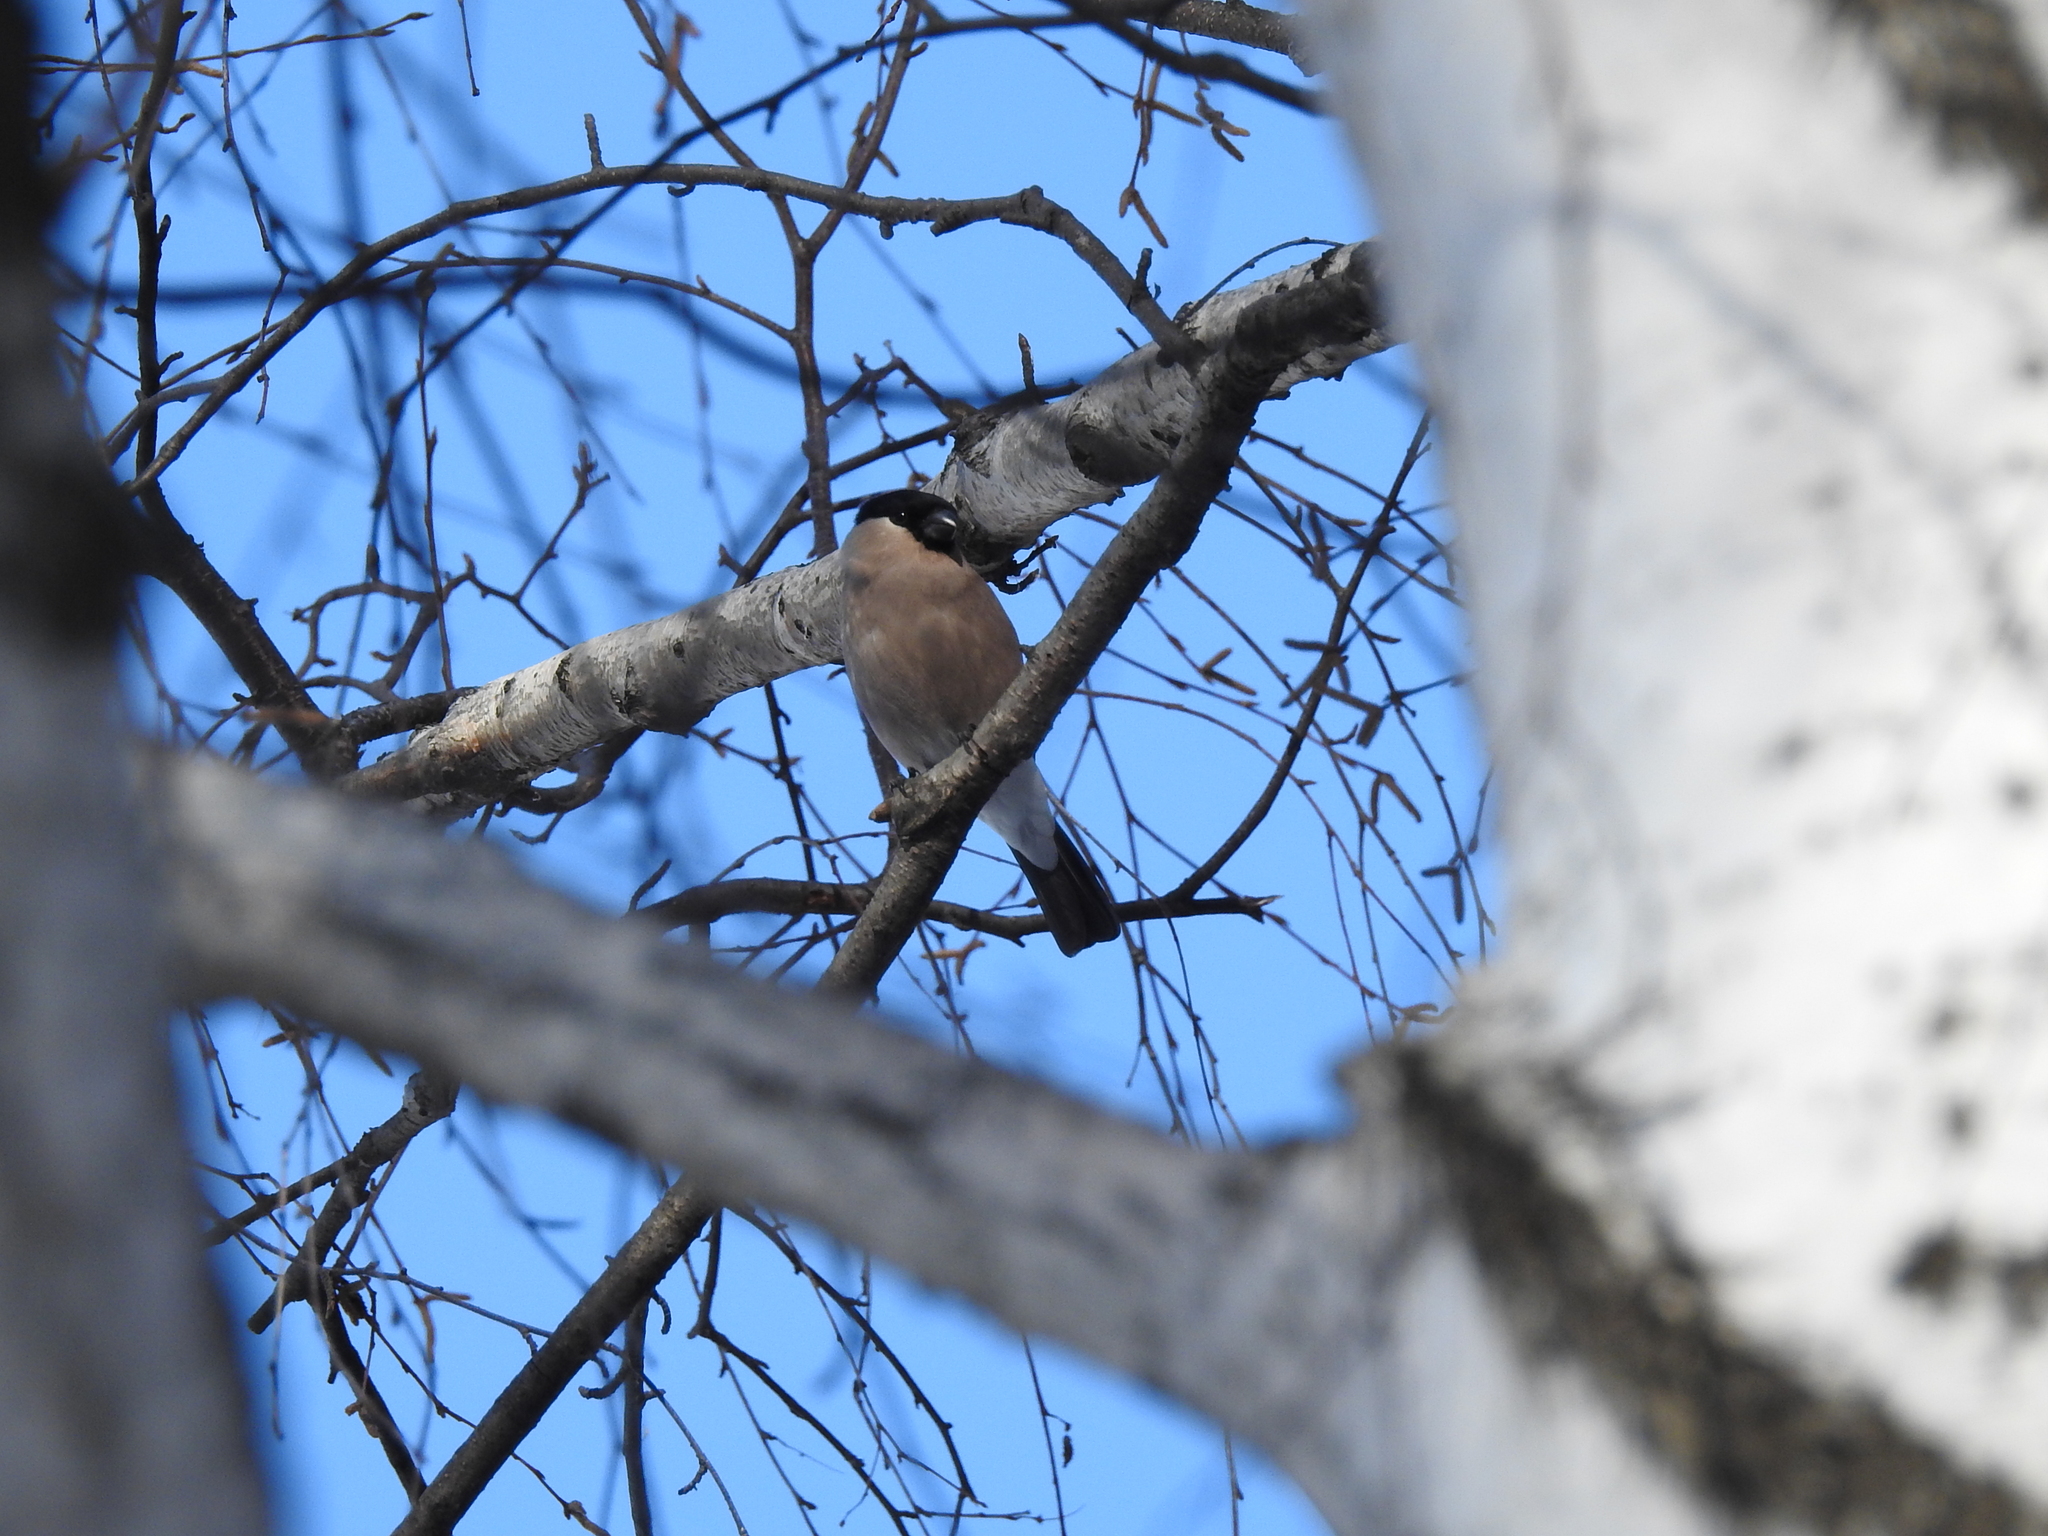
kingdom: Animalia
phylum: Chordata
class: Aves
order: Passeriformes
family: Fringillidae
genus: Pyrrhula
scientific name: Pyrrhula pyrrhula
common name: Eurasian bullfinch
